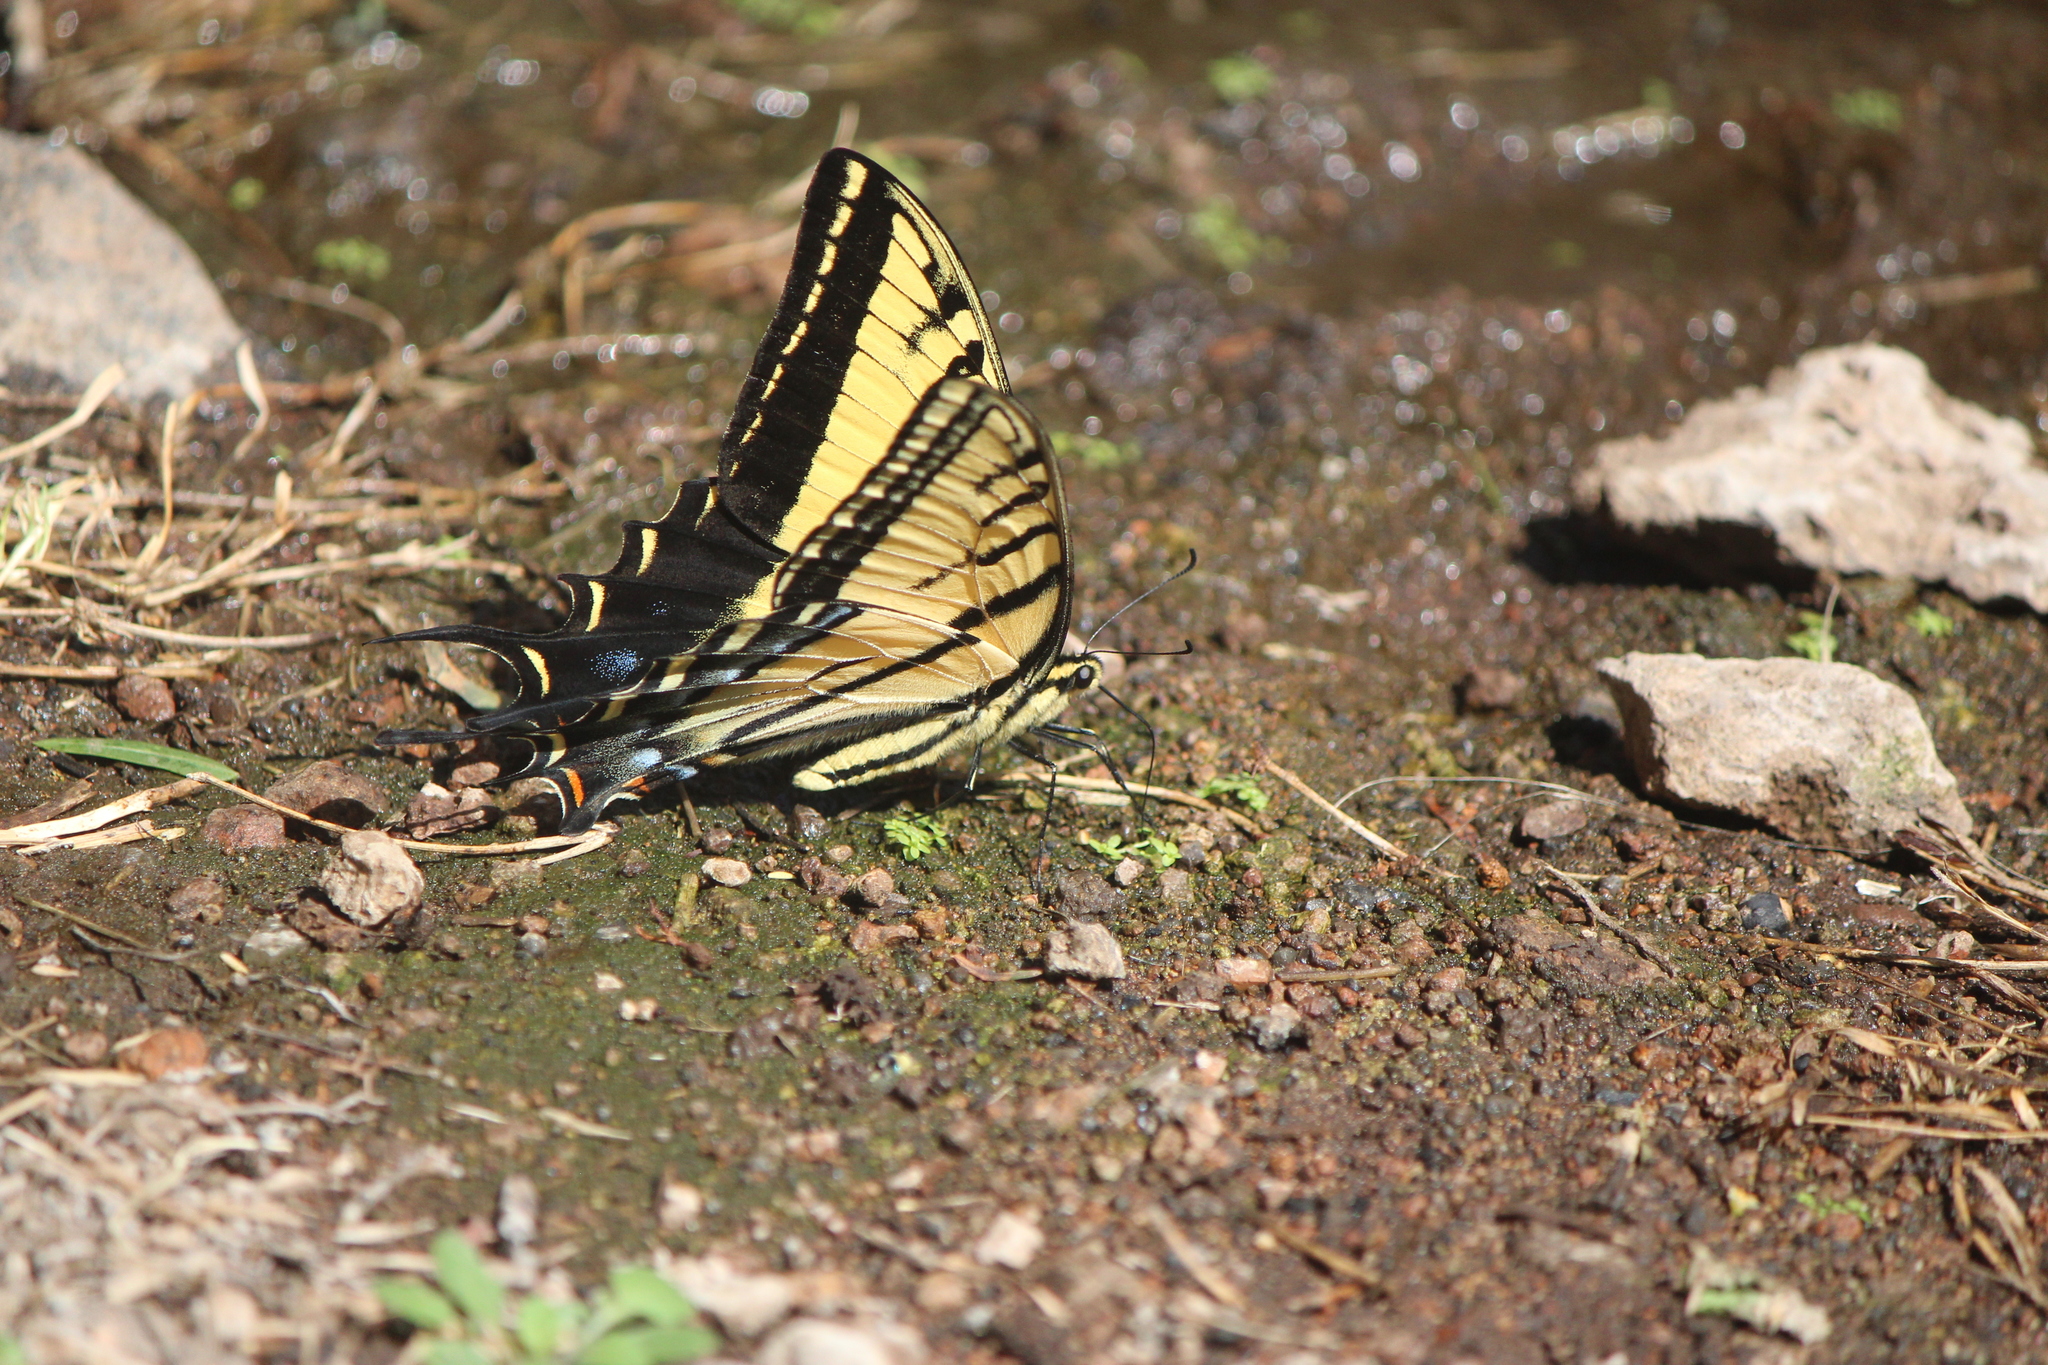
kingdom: Animalia
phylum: Arthropoda
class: Insecta
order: Lepidoptera
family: Papilionidae
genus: Papilio
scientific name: Papilio multicaudata
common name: Two-tailed tiger swallowtail
